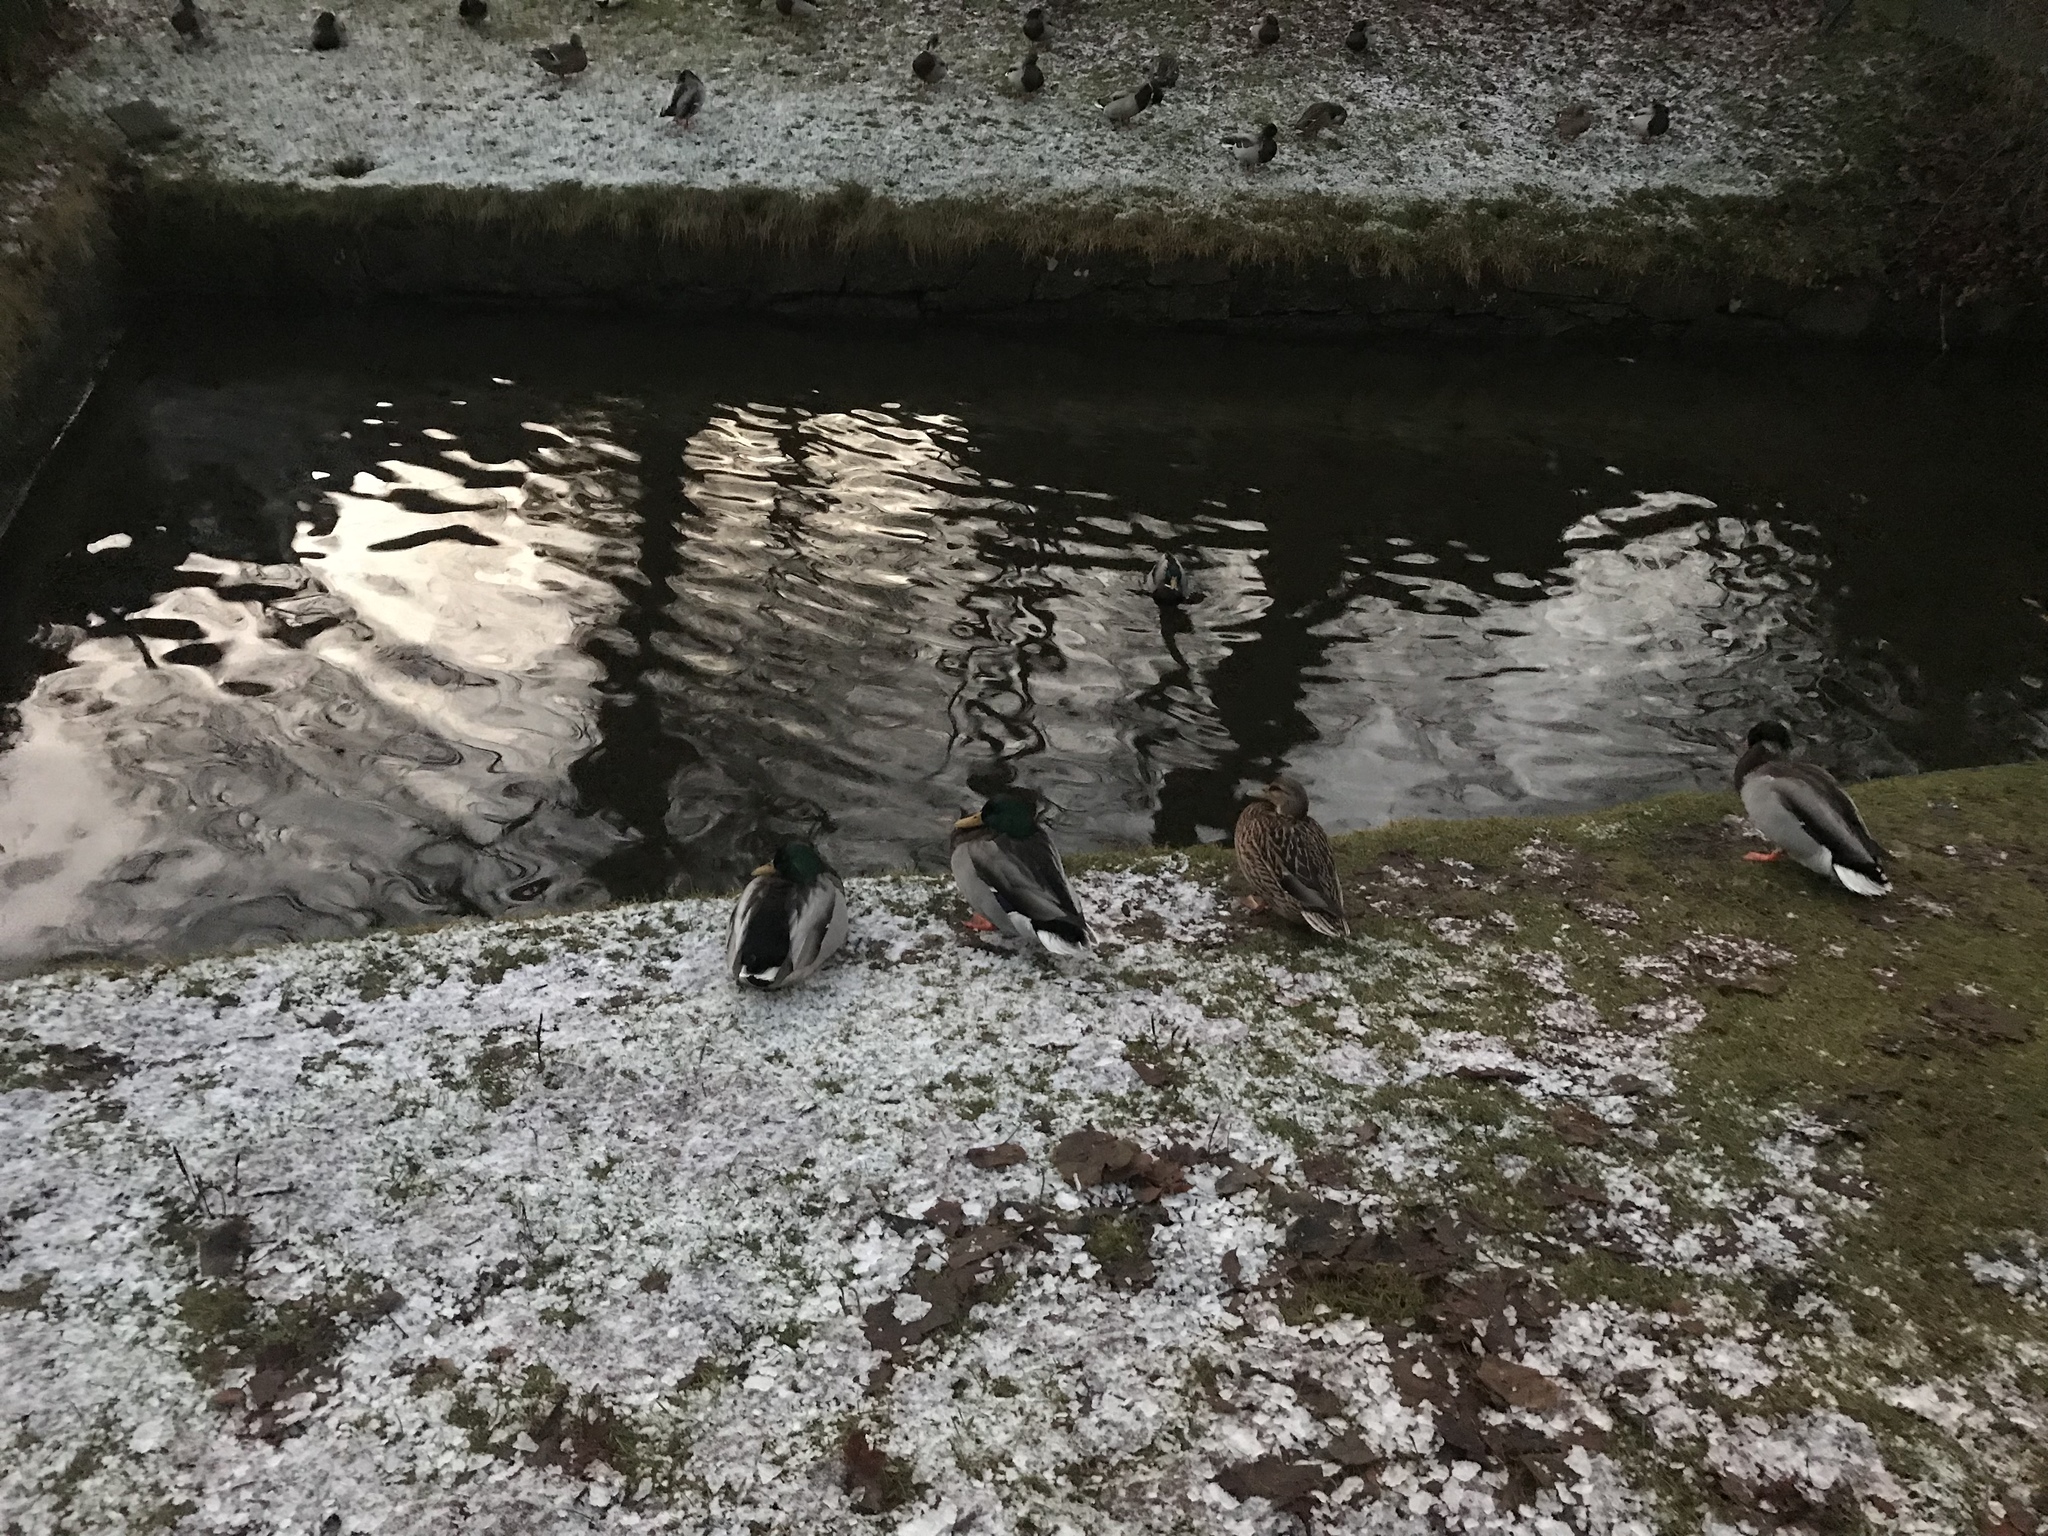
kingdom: Animalia
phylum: Chordata
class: Aves
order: Anseriformes
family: Anatidae
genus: Anas
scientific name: Anas platyrhynchos
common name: Mallard
